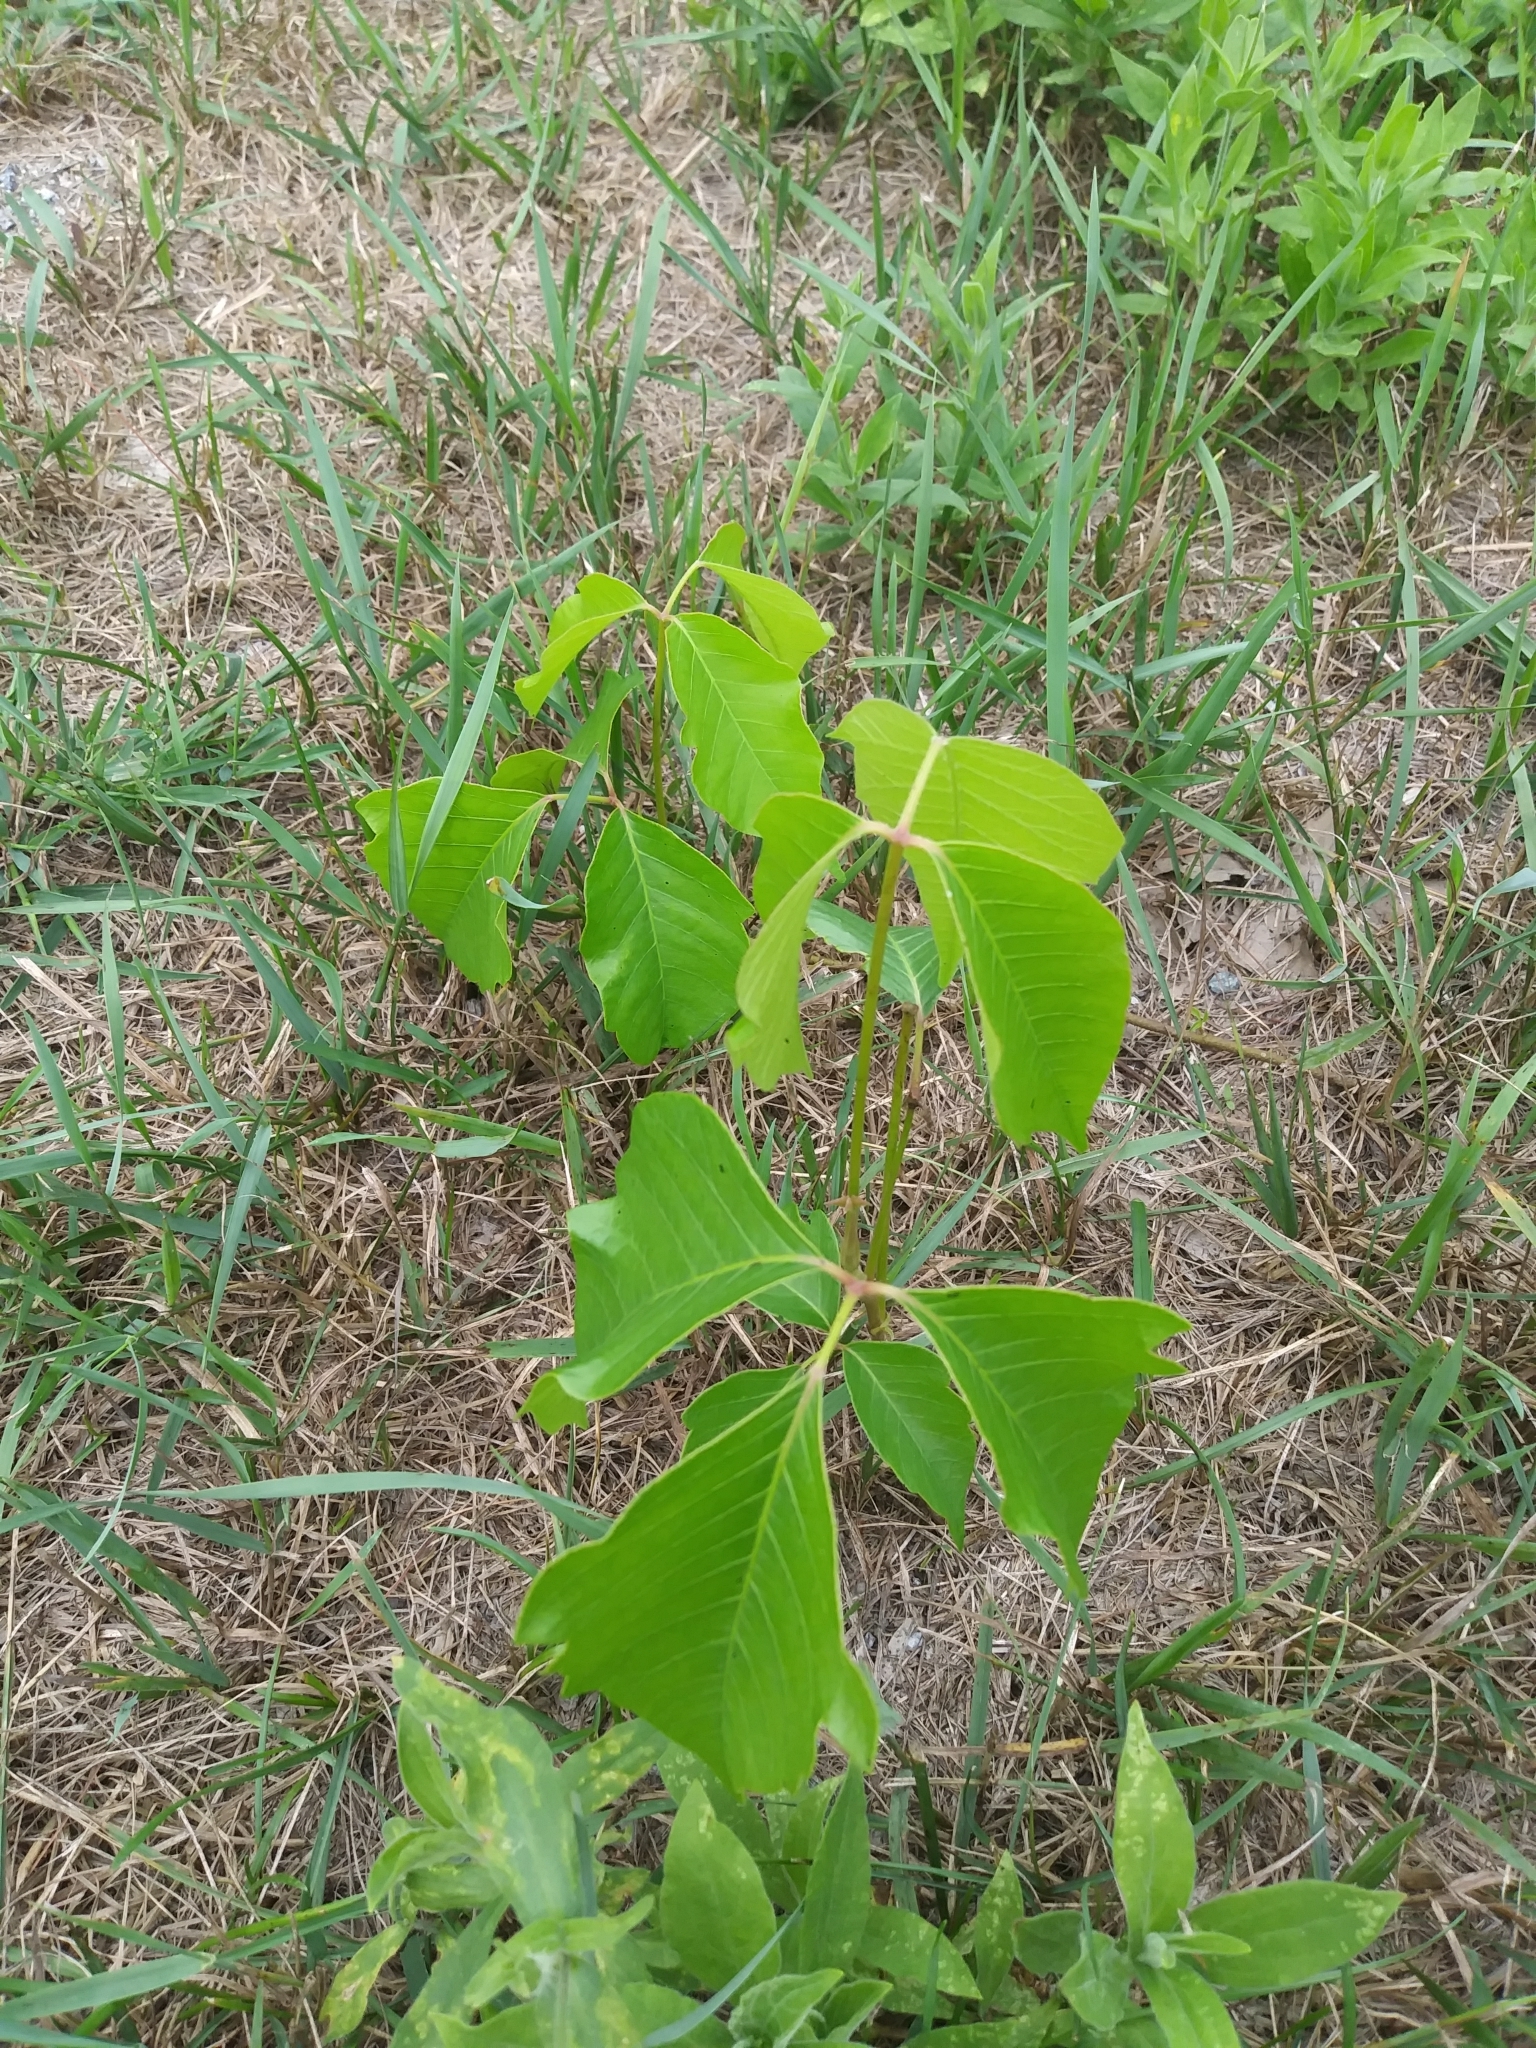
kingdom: Plantae
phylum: Tracheophyta
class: Magnoliopsida
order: Sapindales
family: Anacardiaceae
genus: Toxicodendron
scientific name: Toxicodendron rydbergii
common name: Rydberg's poison-ivy
